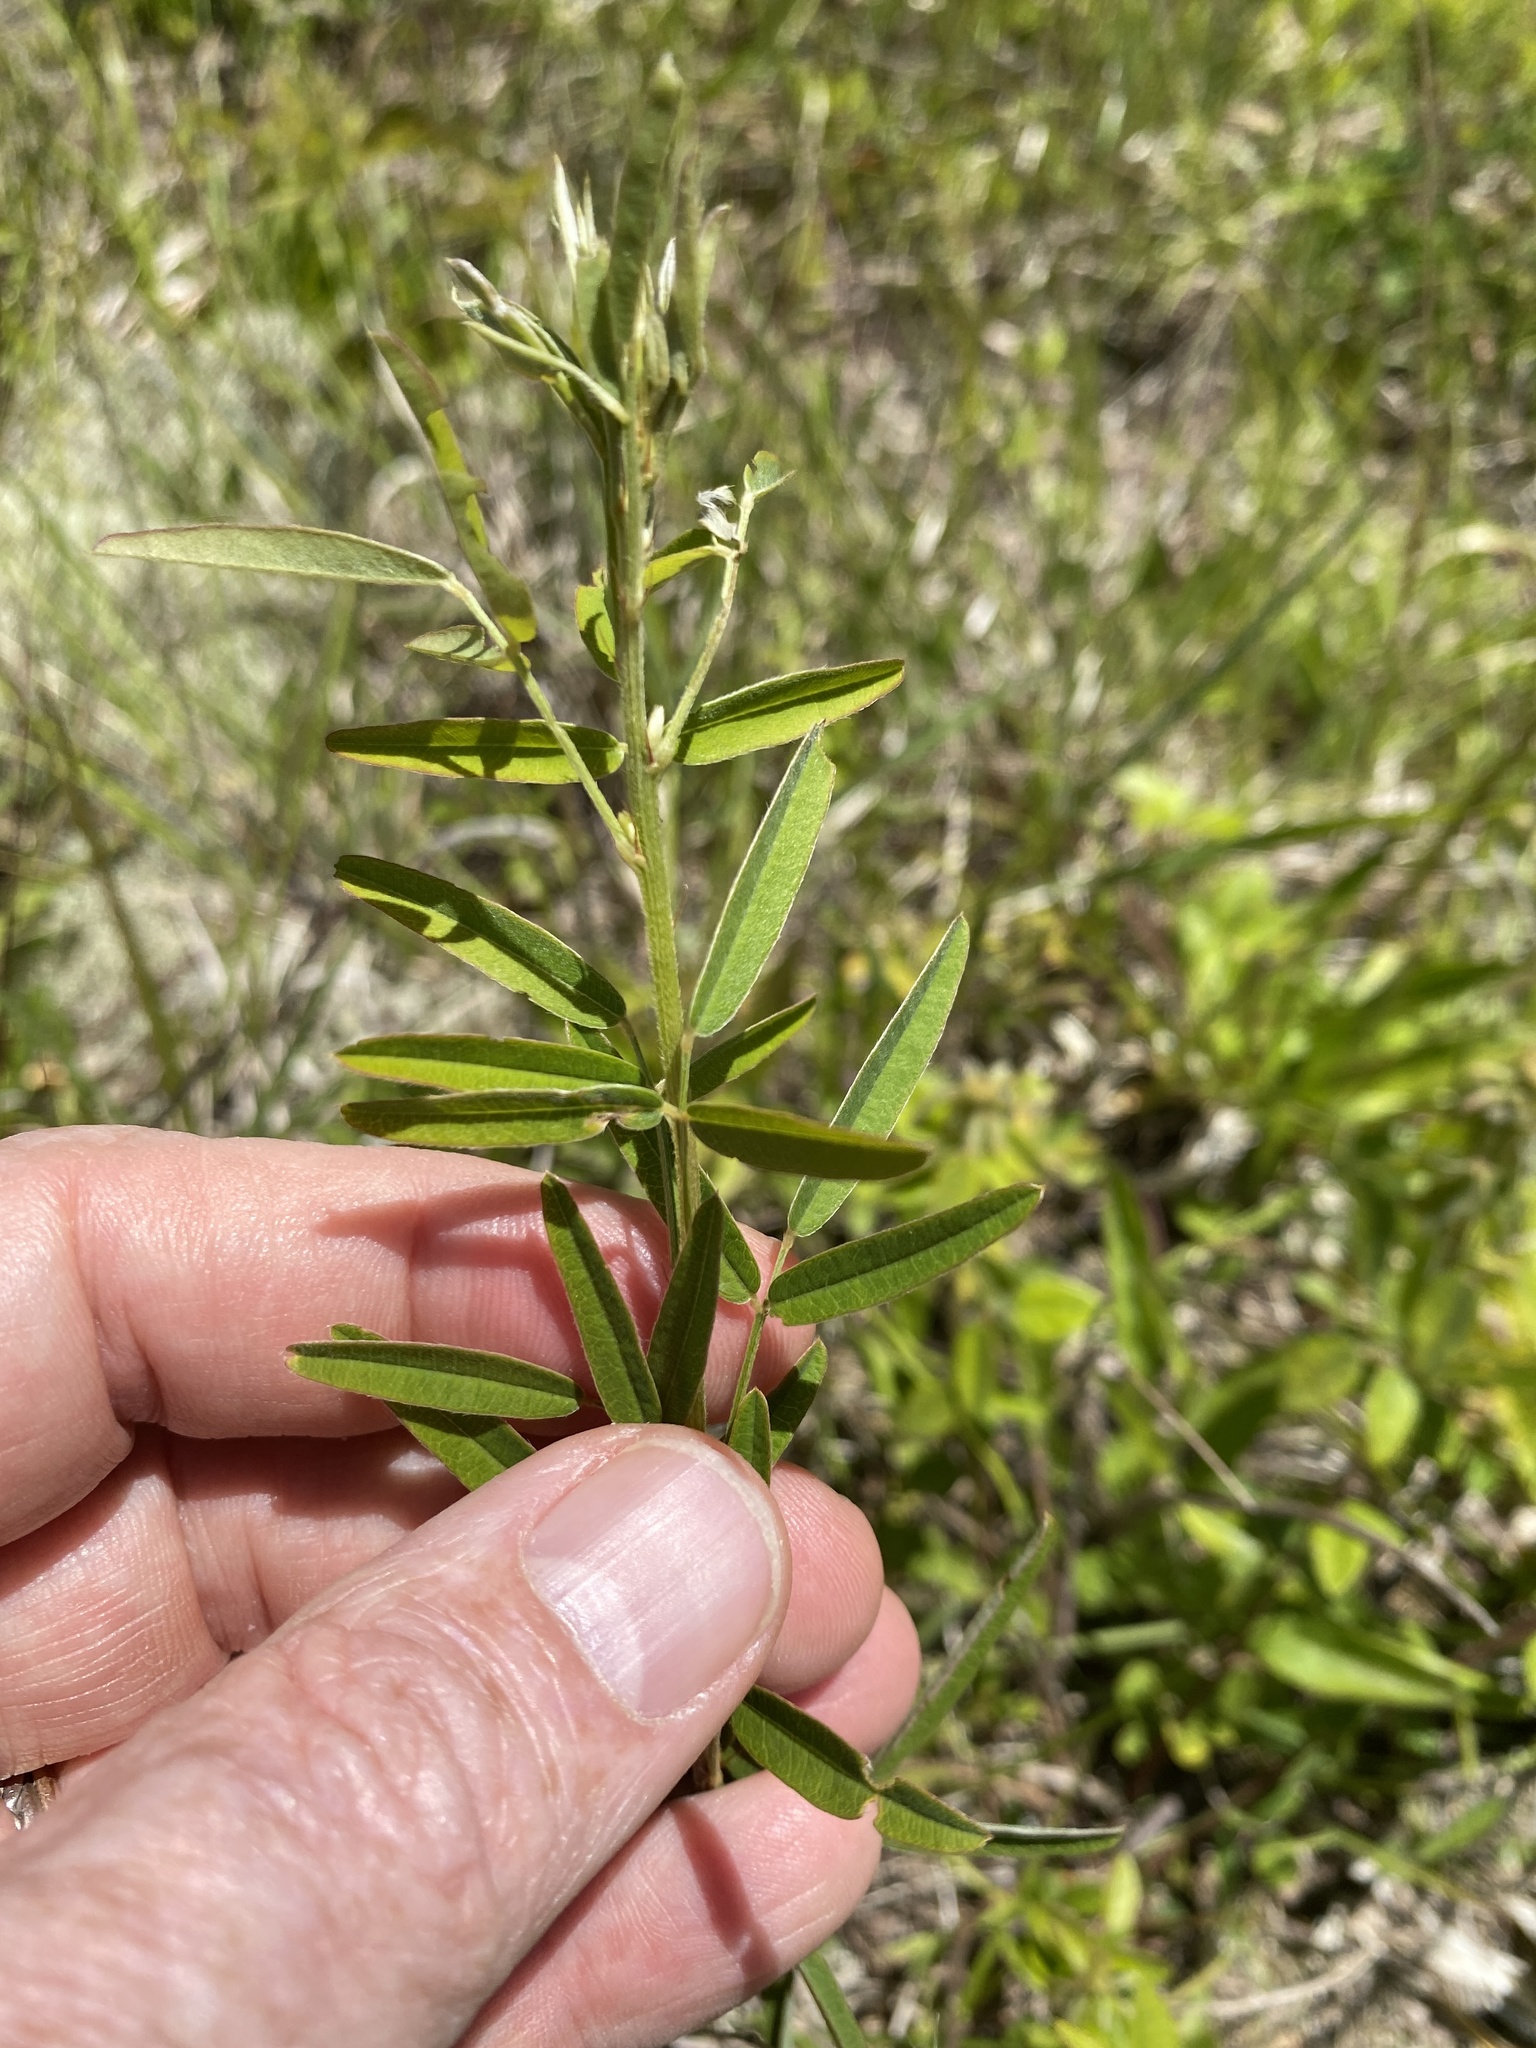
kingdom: Plantae
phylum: Tracheophyta
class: Magnoliopsida
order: Fabales
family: Fabaceae
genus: Lespedeza
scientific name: Lespedeza virginica
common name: Slender bush-clover
